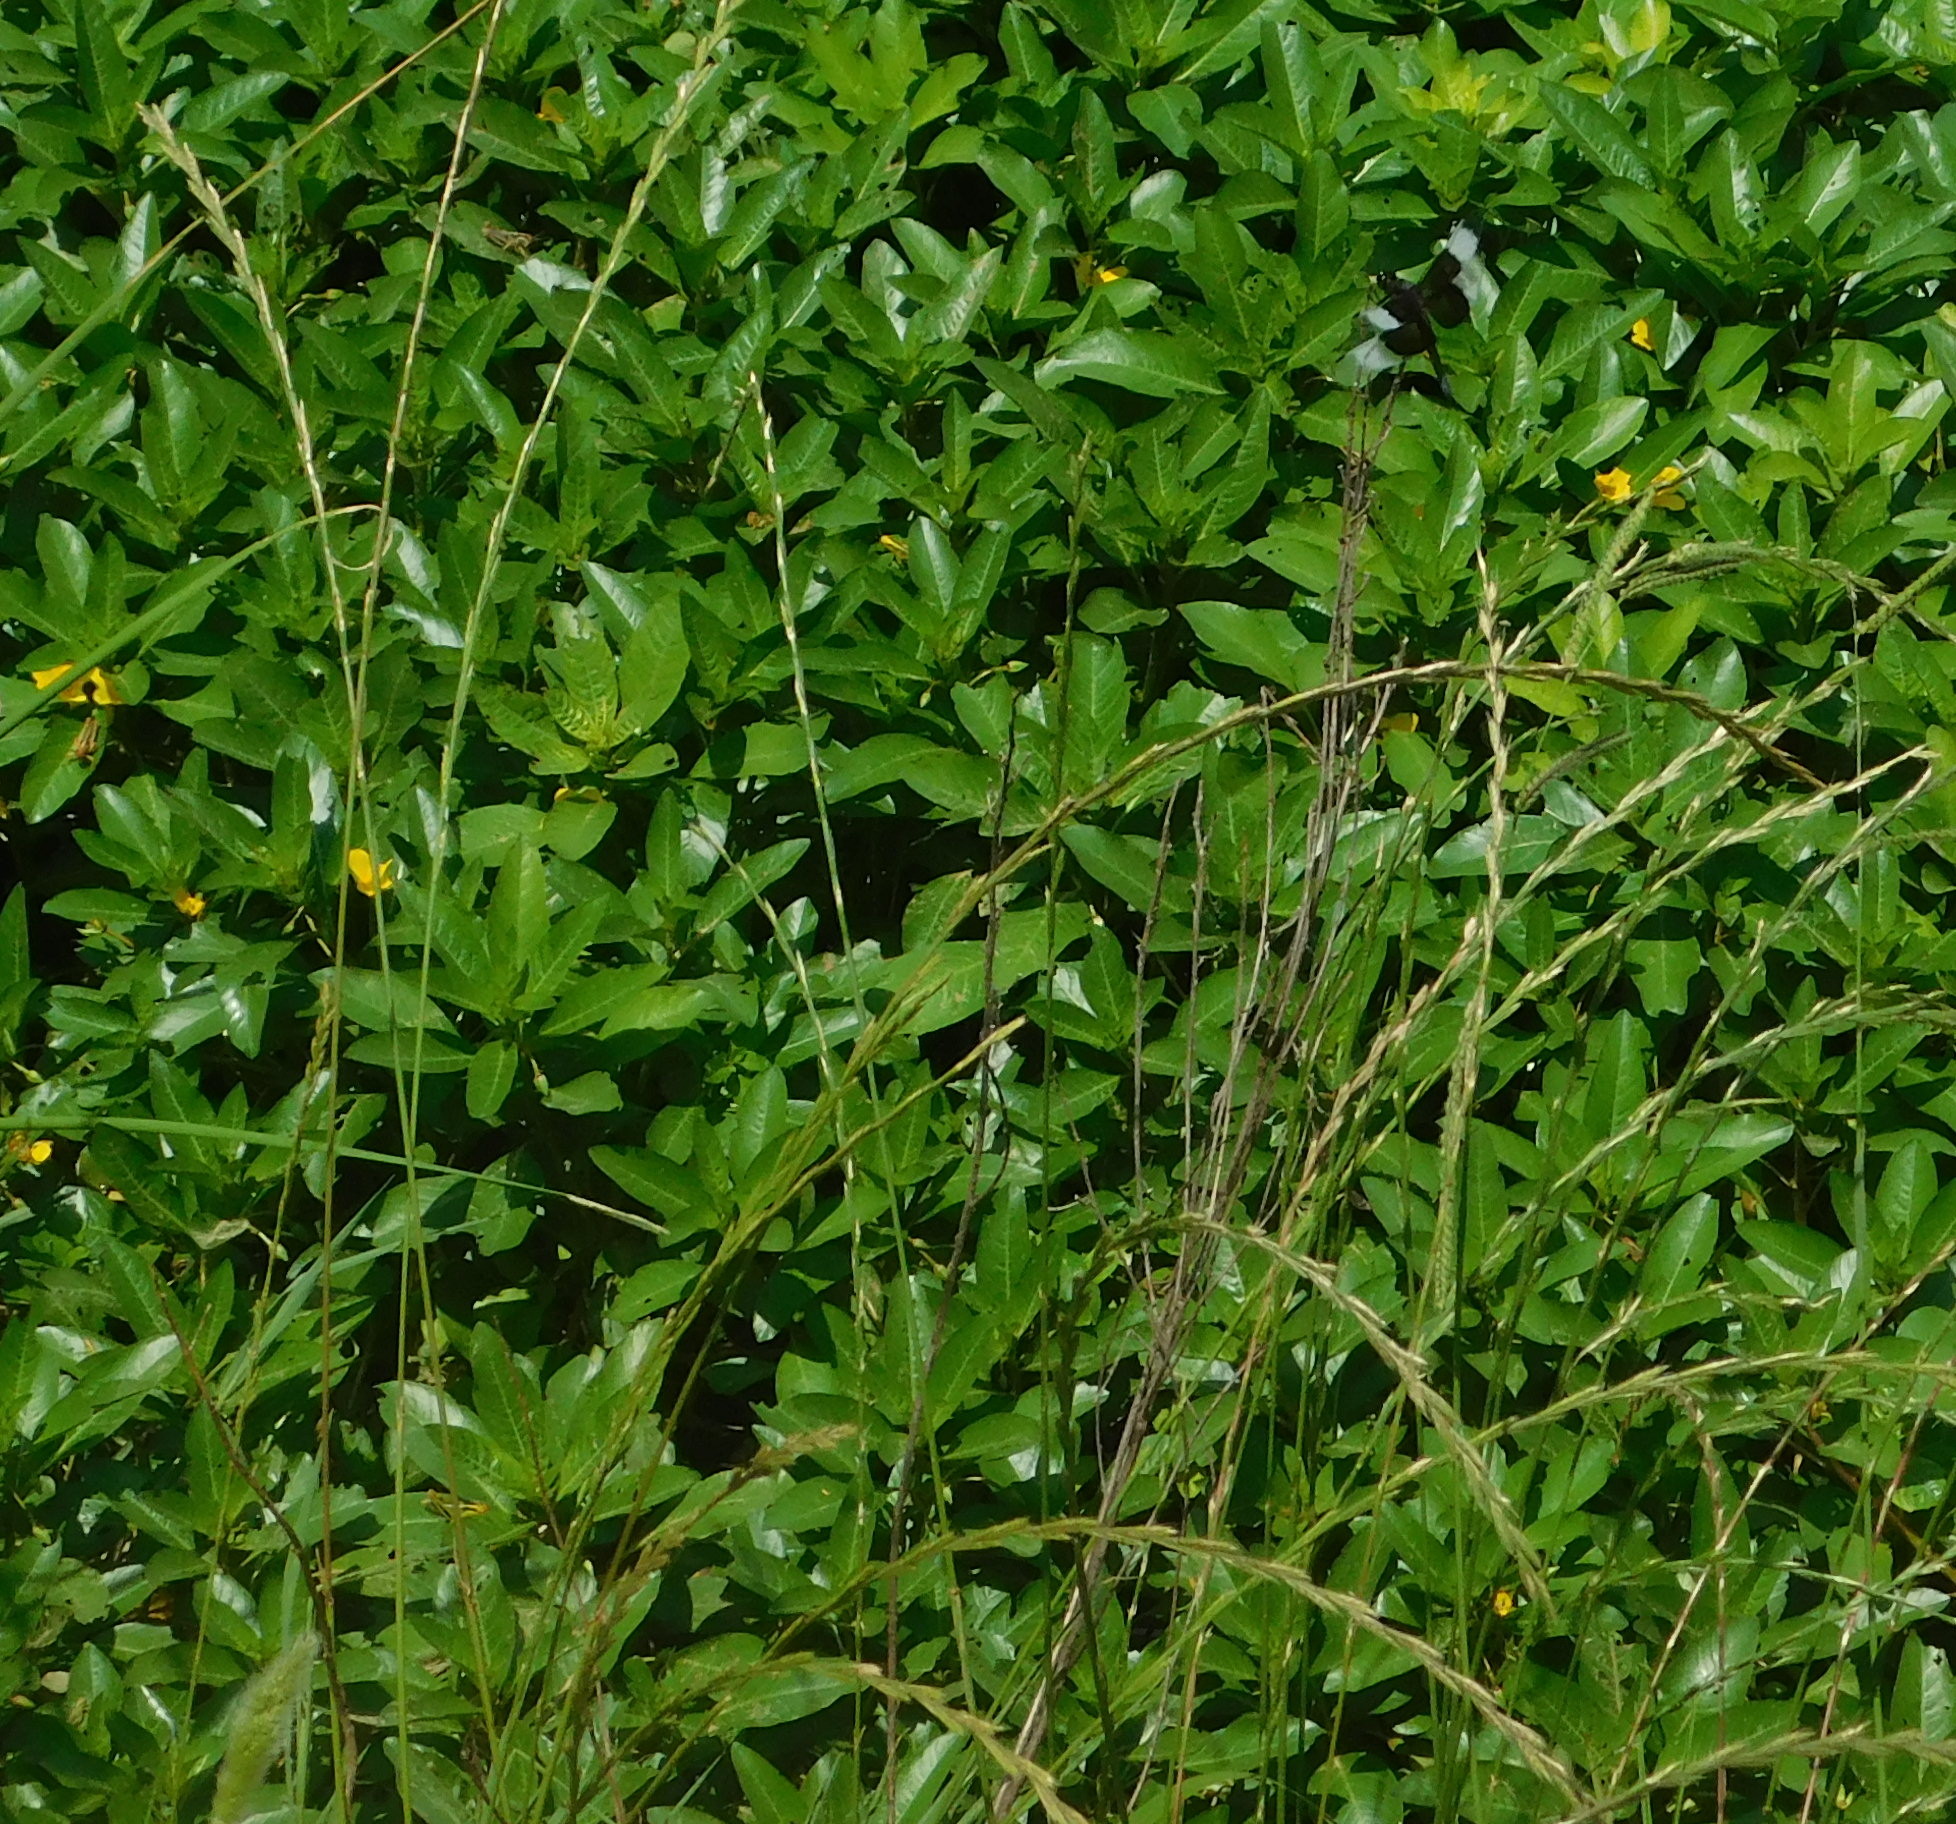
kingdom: Plantae
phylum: Tracheophyta
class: Magnoliopsida
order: Myrtales
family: Onagraceae
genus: Ludwigia
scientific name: Ludwigia peploides
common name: Floating primrose-willow
